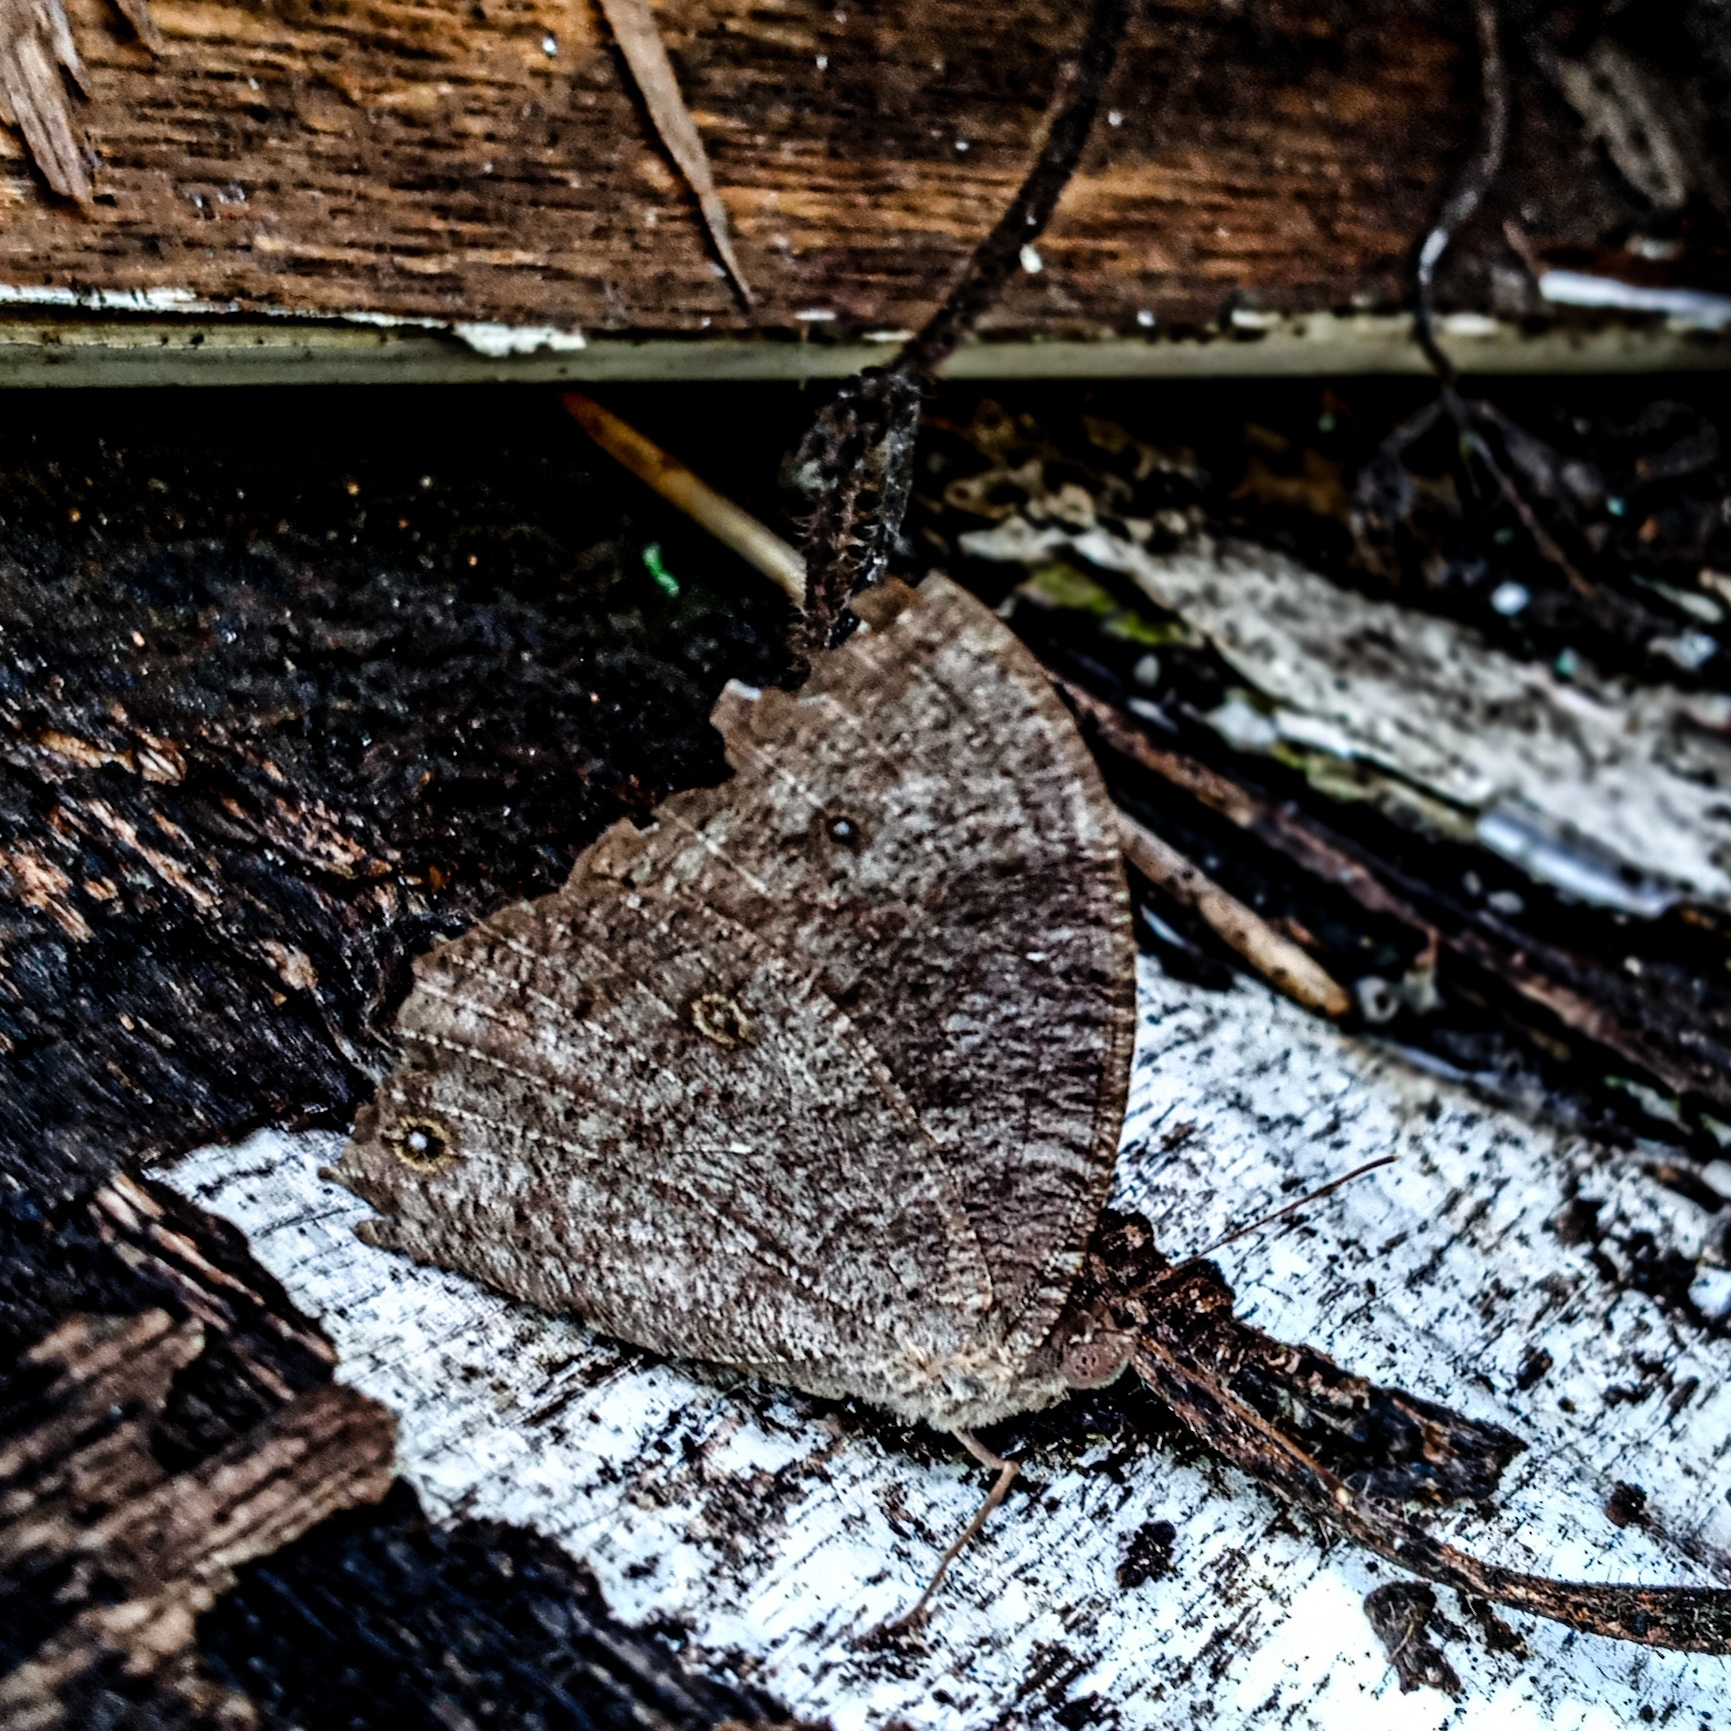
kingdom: Animalia
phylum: Arthropoda
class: Insecta
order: Lepidoptera
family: Nymphalidae
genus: Melanitis
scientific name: Melanitis leda
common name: Twilight brown
